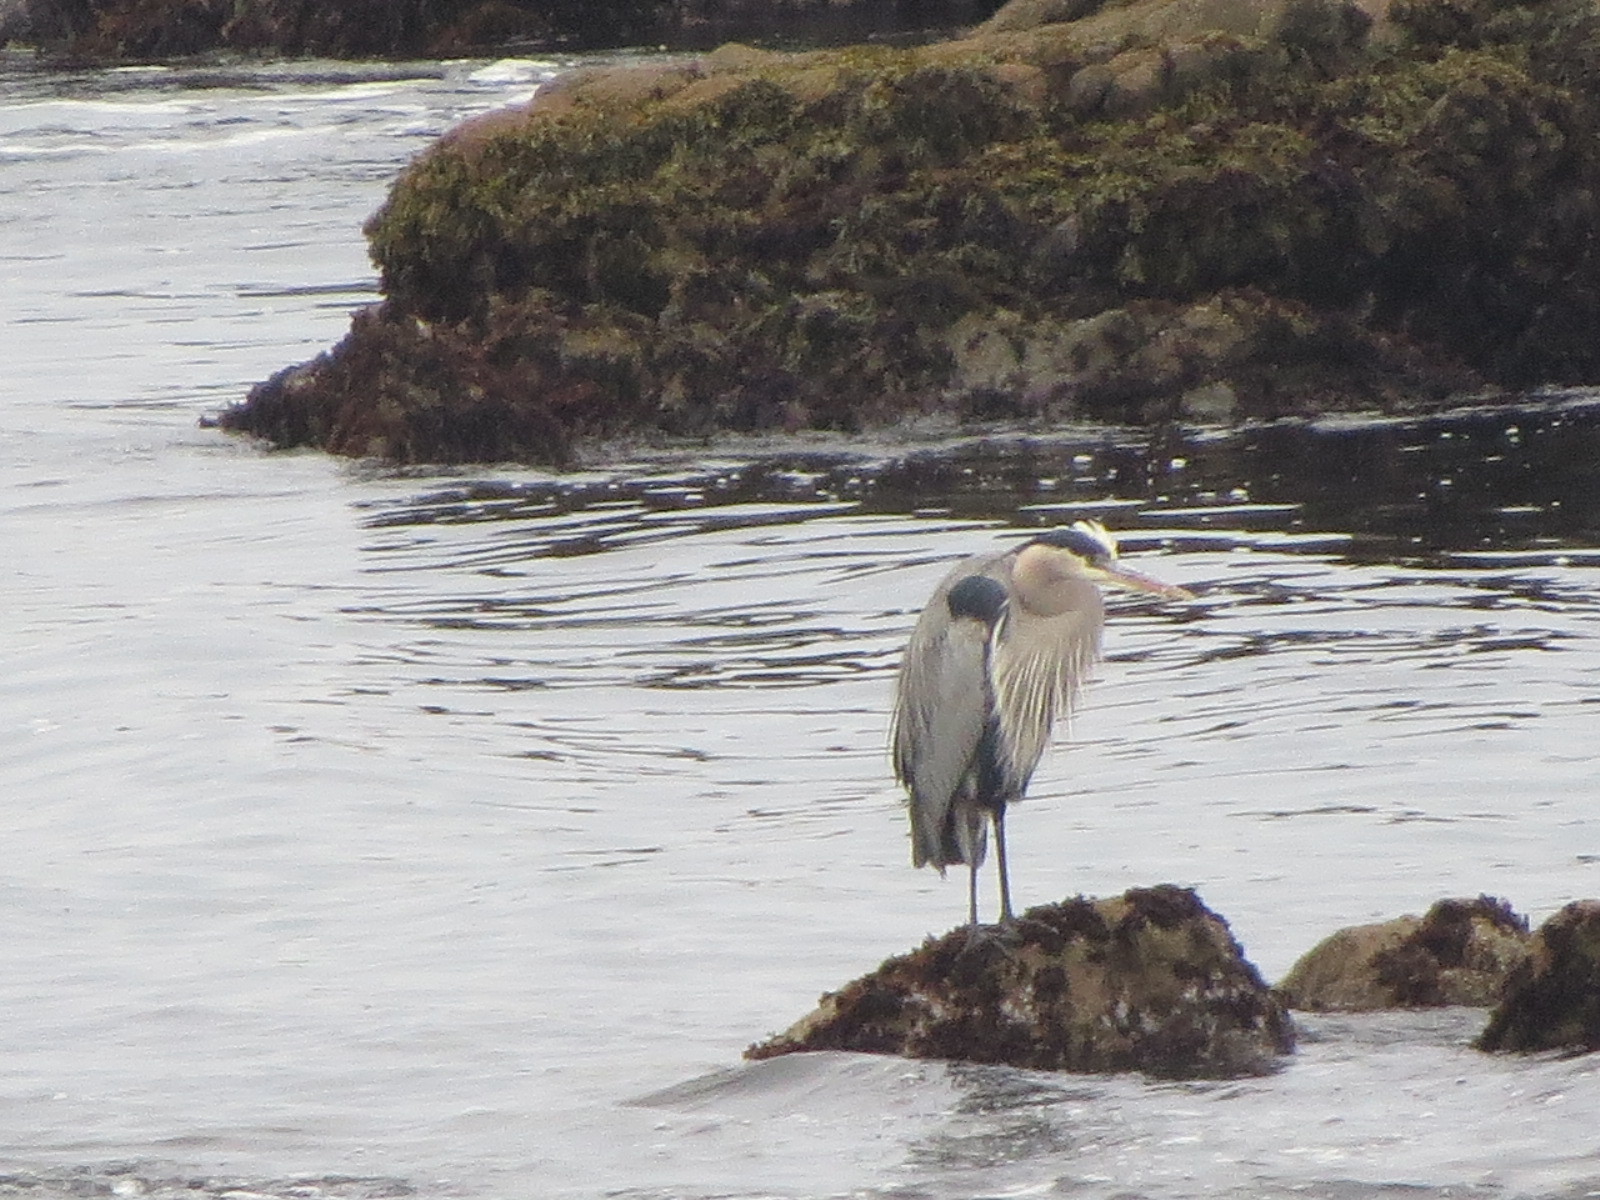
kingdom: Animalia
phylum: Chordata
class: Aves
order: Pelecaniformes
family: Ardeidae
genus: Ardea
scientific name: Ardea herodias
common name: Great blue heron
